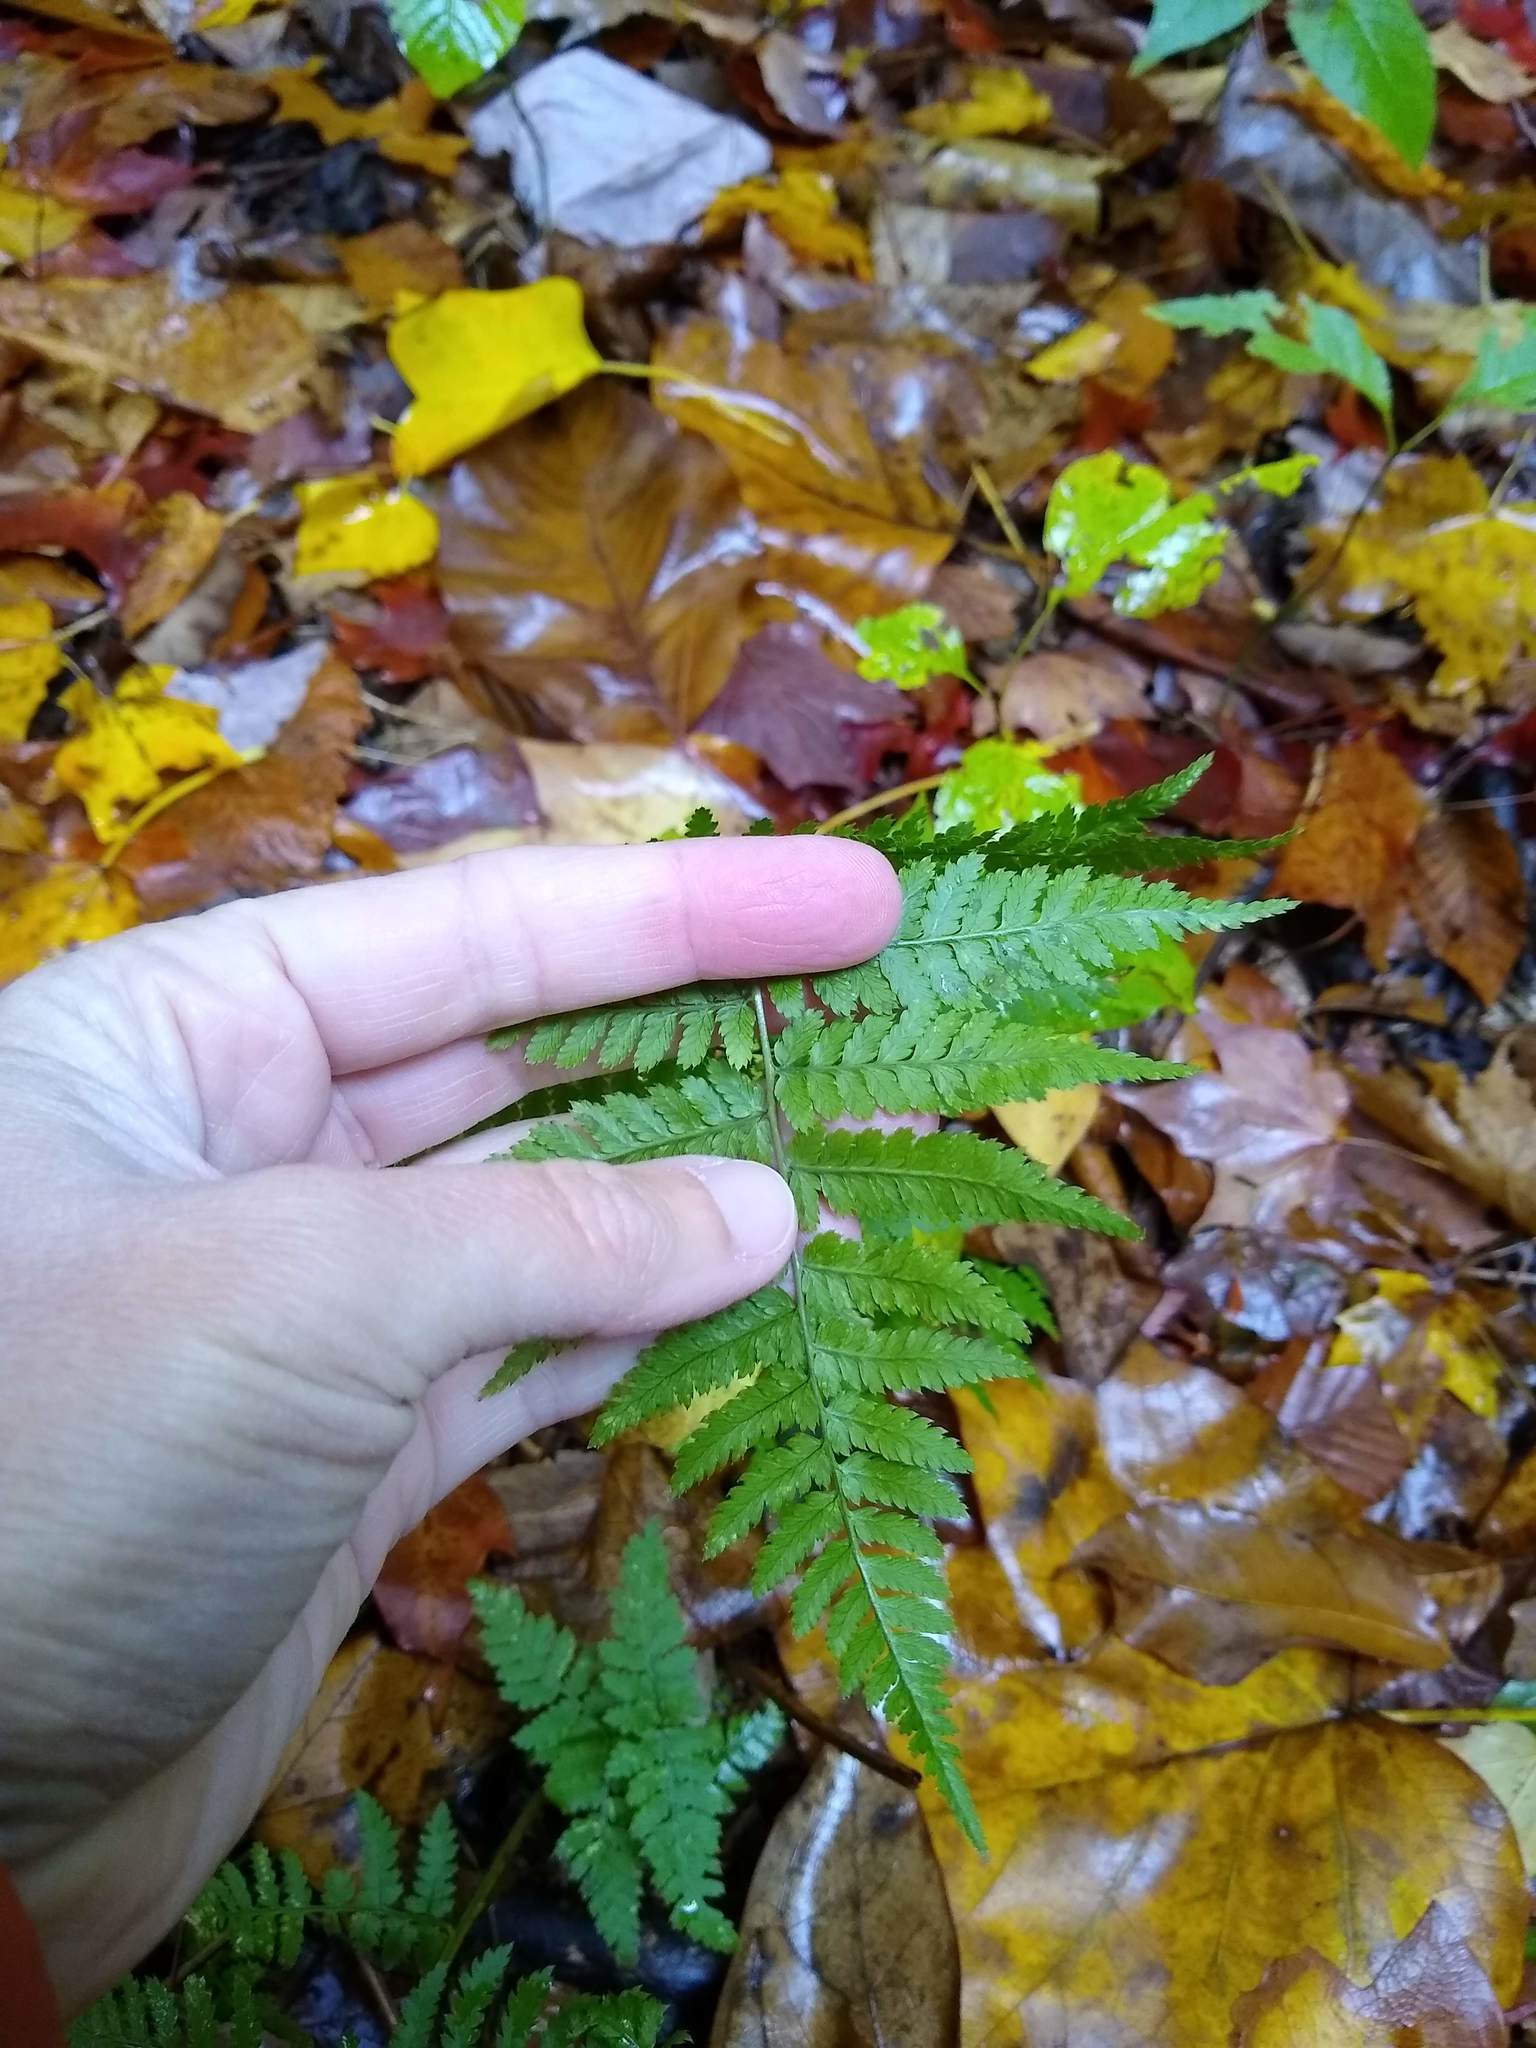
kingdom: Plantae
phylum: Tracheophyta
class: Polypodiopsida
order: Polypodiales
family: Dryopteridaceae
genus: Dryopteris
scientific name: Dryopteris intermedia
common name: Evergreen wood fern
